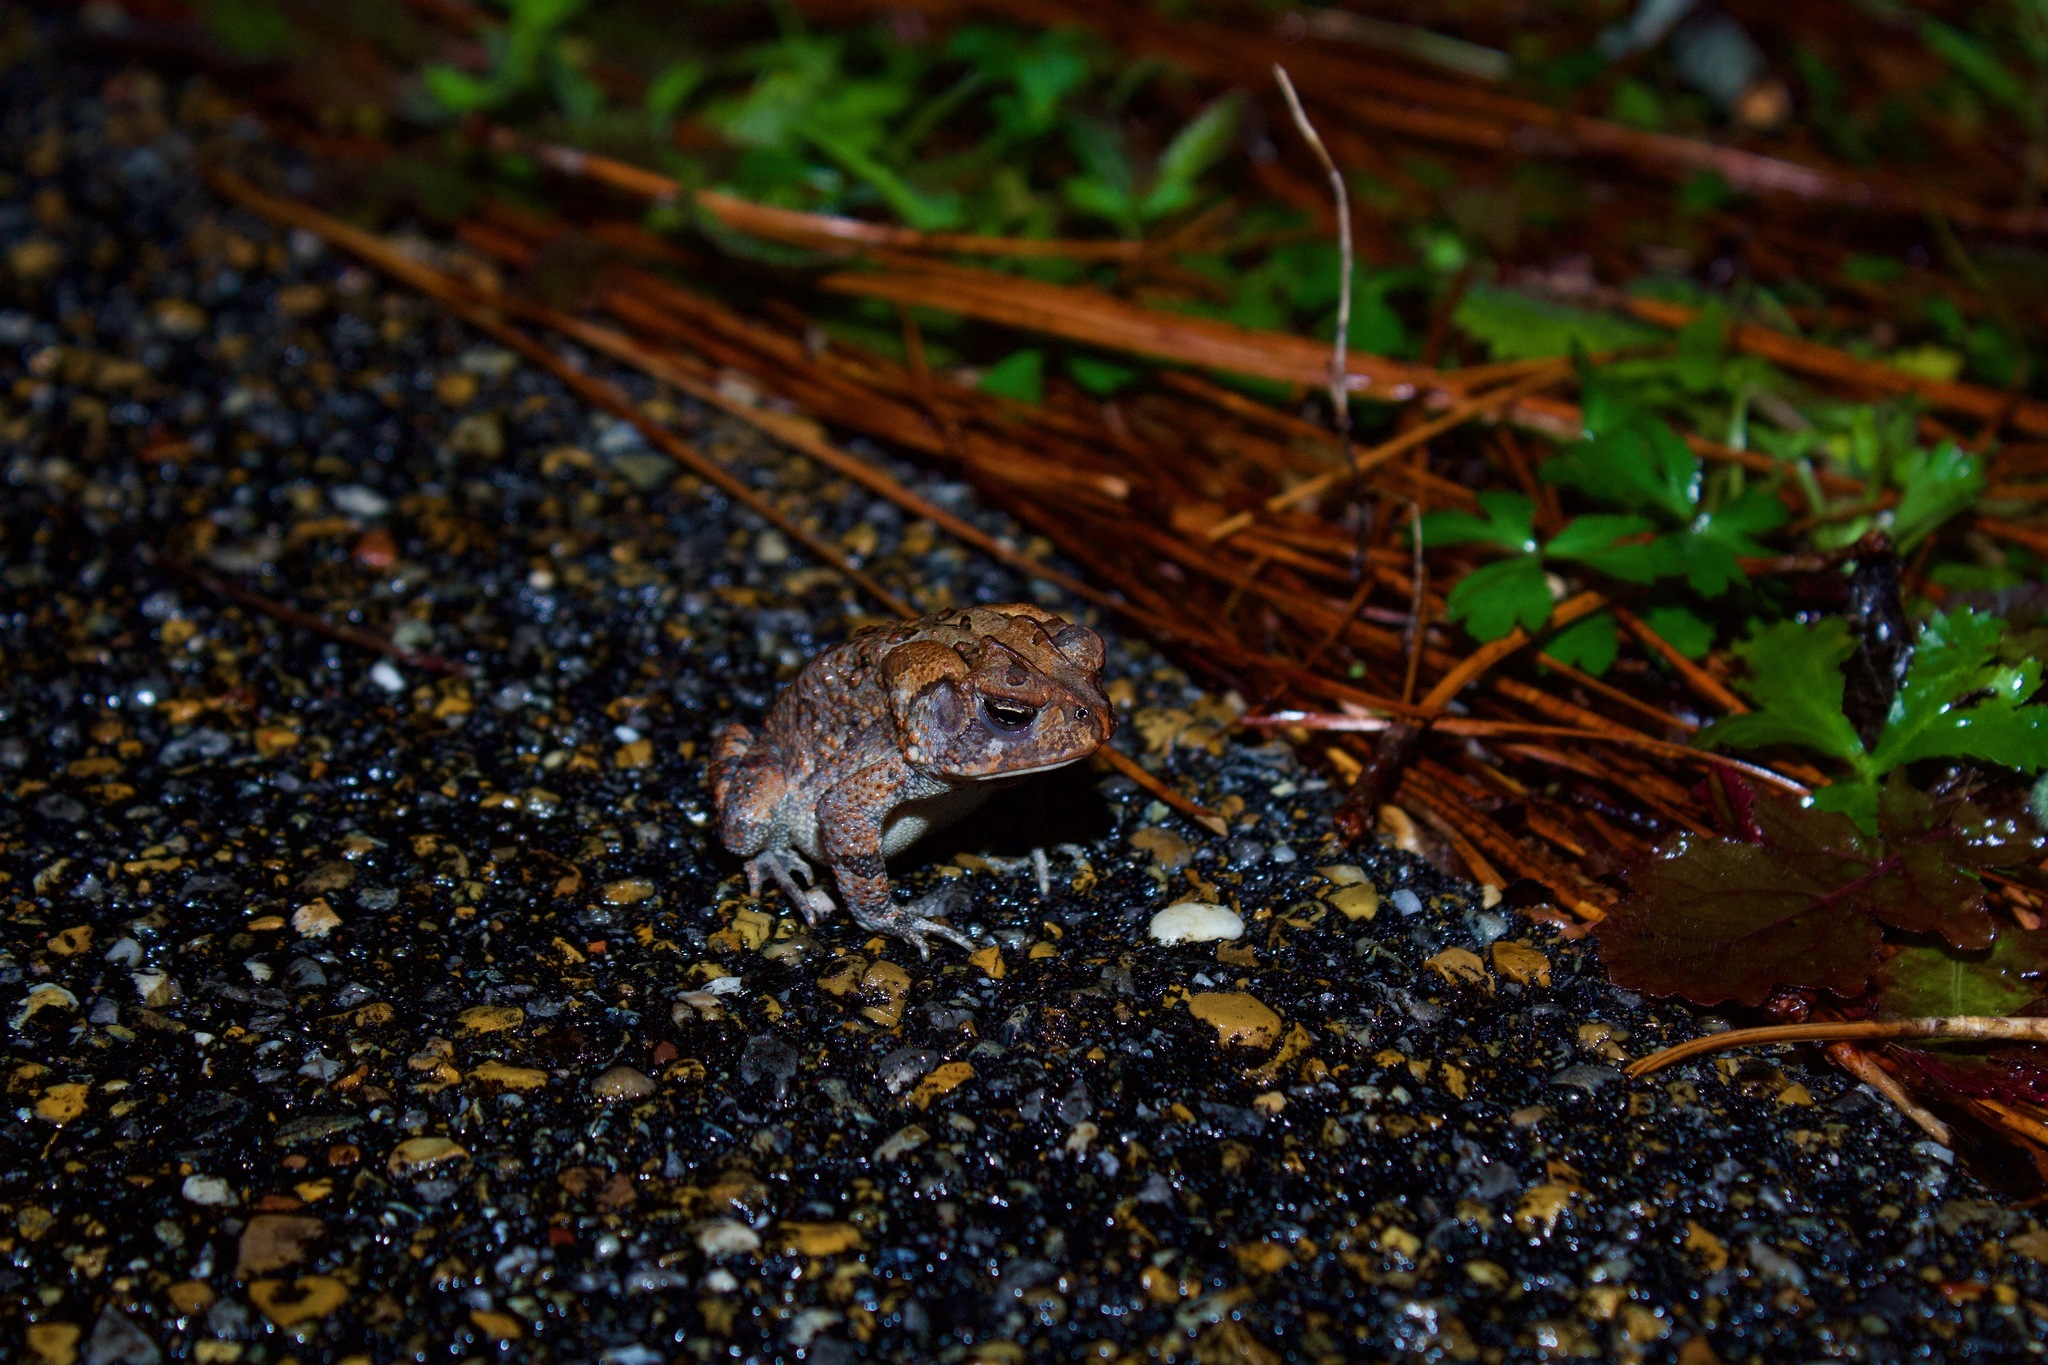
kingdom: Animalia
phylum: Chordata
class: Amphibia
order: Anura
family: Bufonidae
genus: Anaxyrus
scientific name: Anaxyrus terrestris
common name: Southern toad
